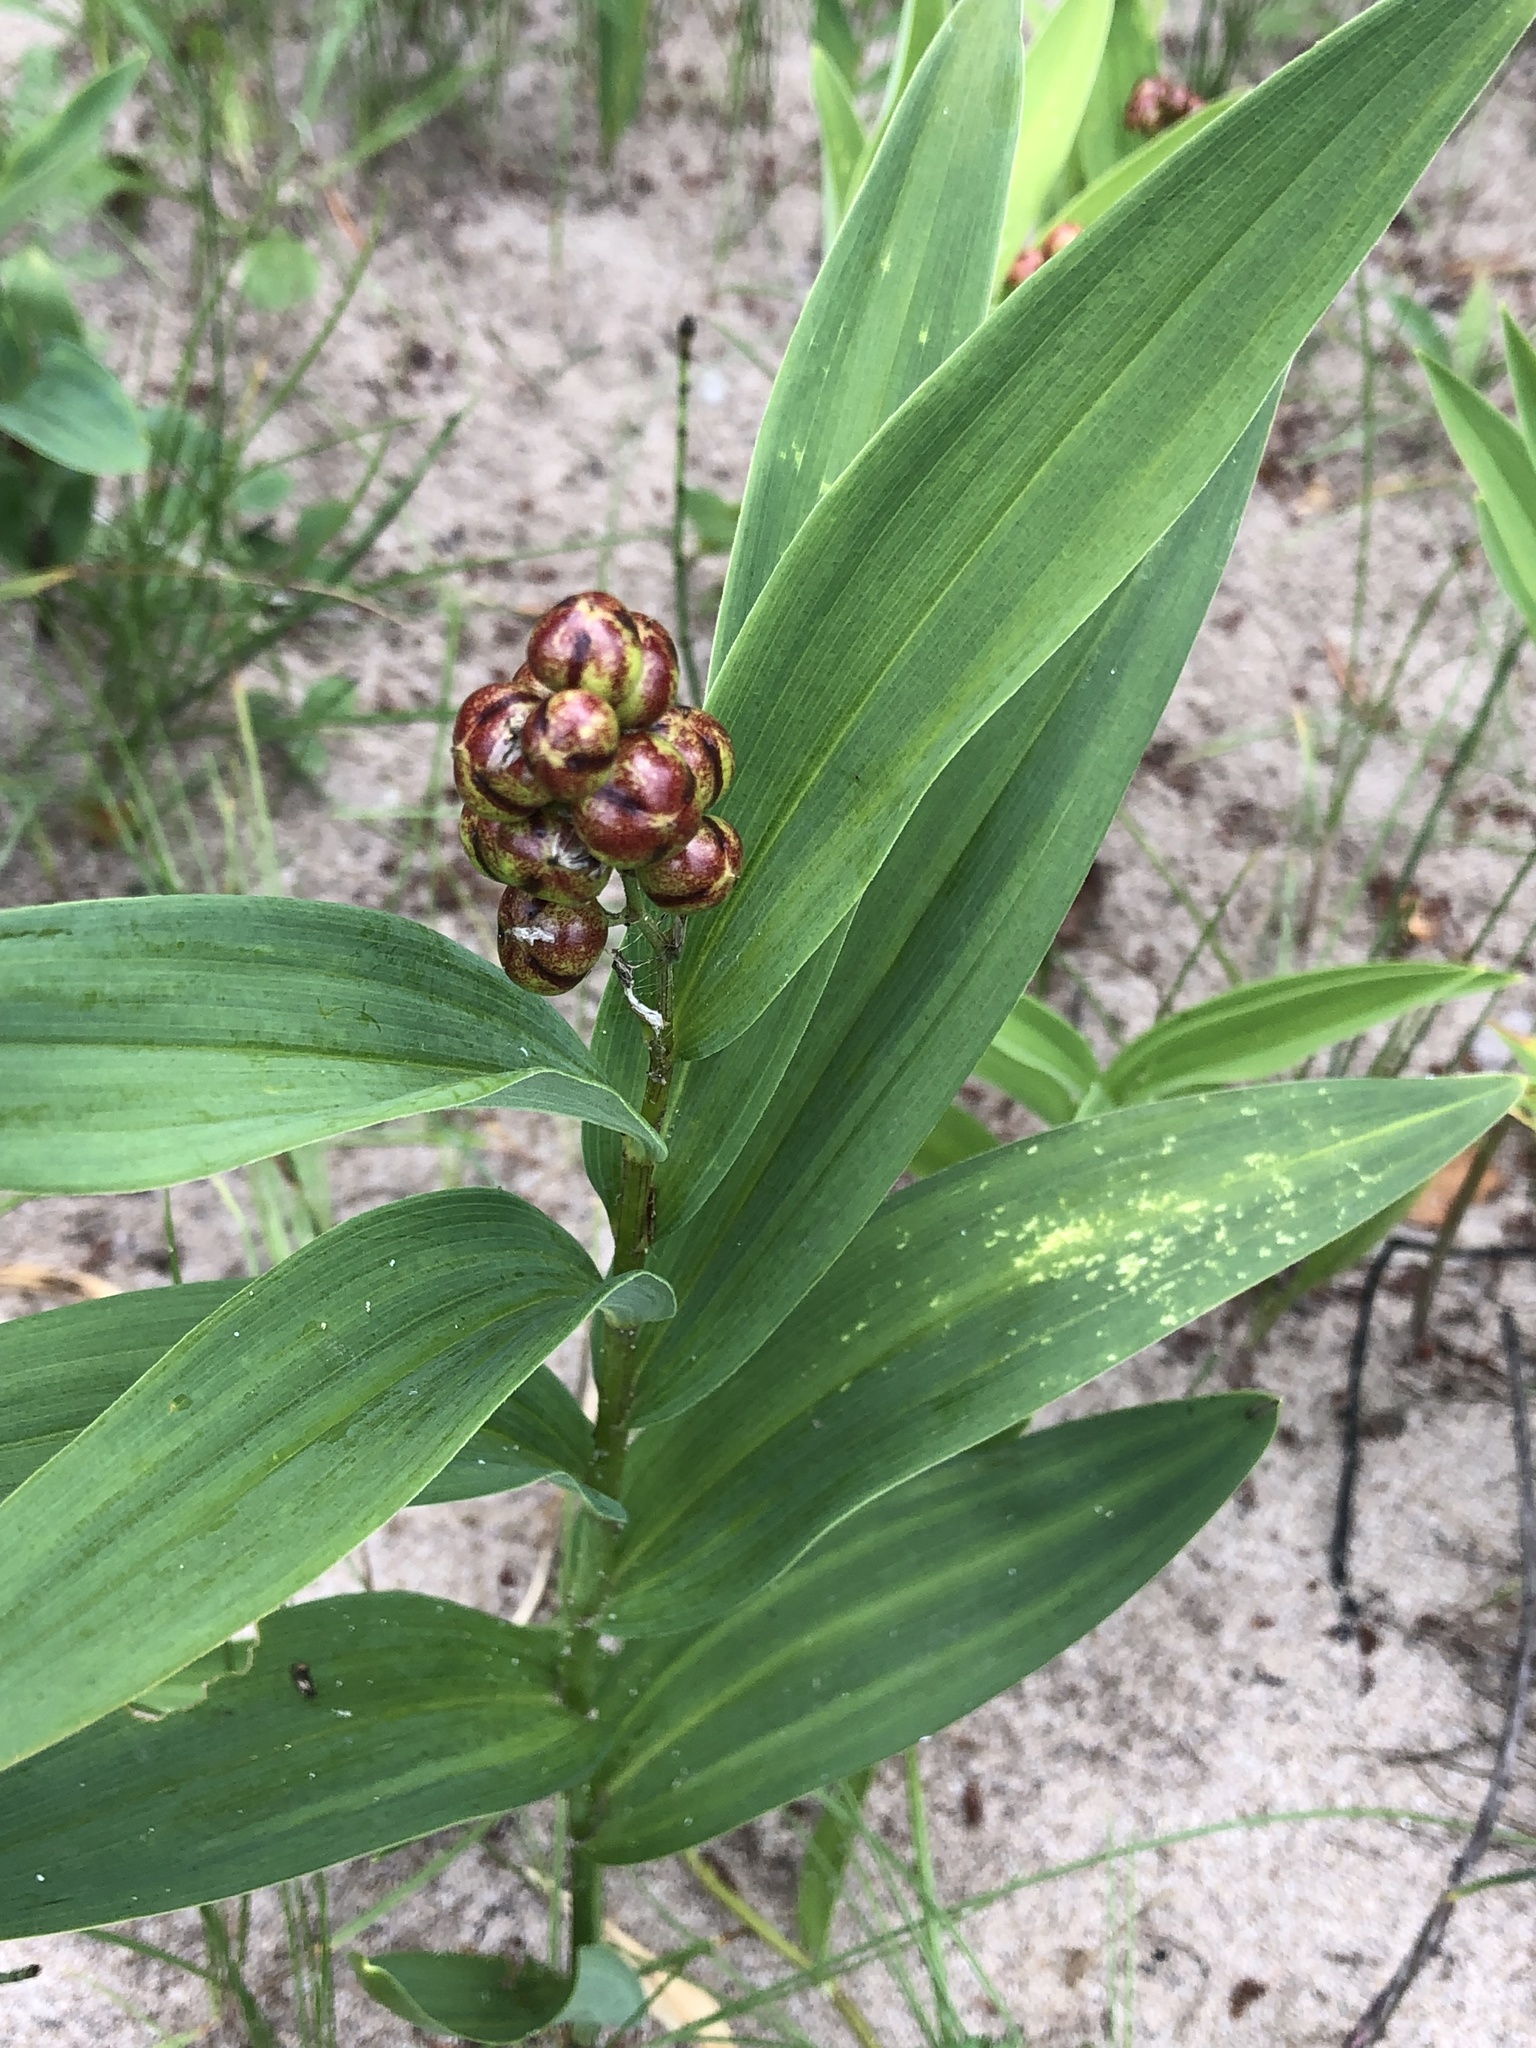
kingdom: Plantae
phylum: Tracheophyta
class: Liliopsida
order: Asparagales
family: Asparagaceae
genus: Maianthemum
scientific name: Maianthemum stellatum
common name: Little false solomon's seal
